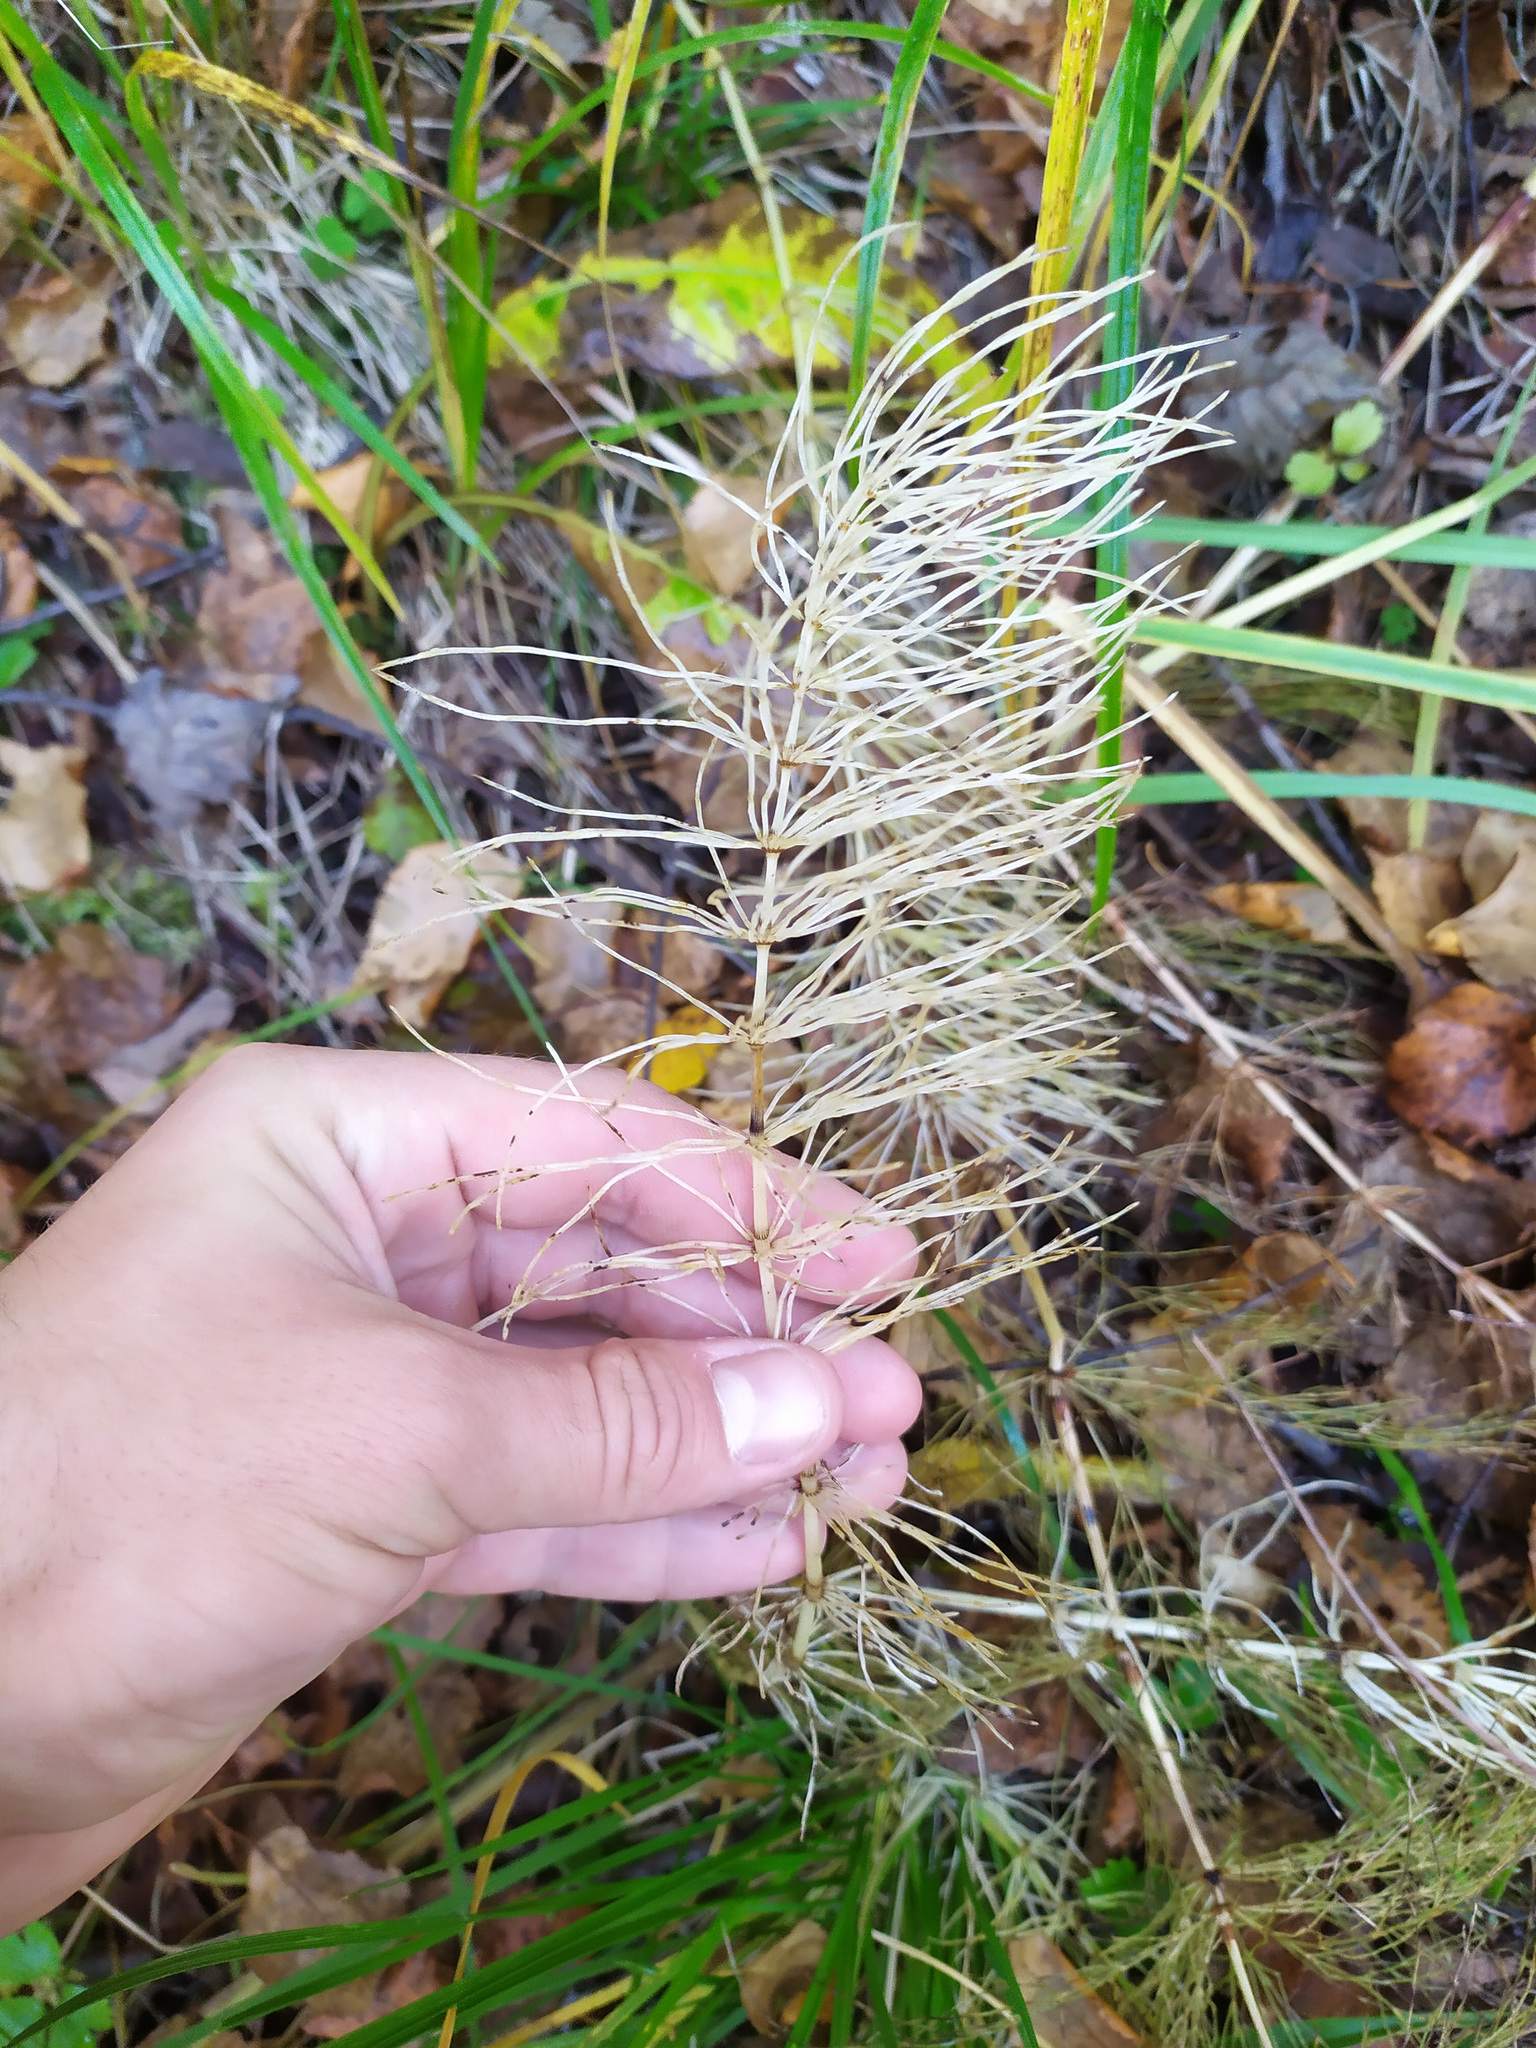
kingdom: Plantae
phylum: Tracheophyta
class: Polypodiopsida
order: Equisetales
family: Equisetaceae
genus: Equisetum
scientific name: Equisetum pratense
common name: Meadow horsetail
